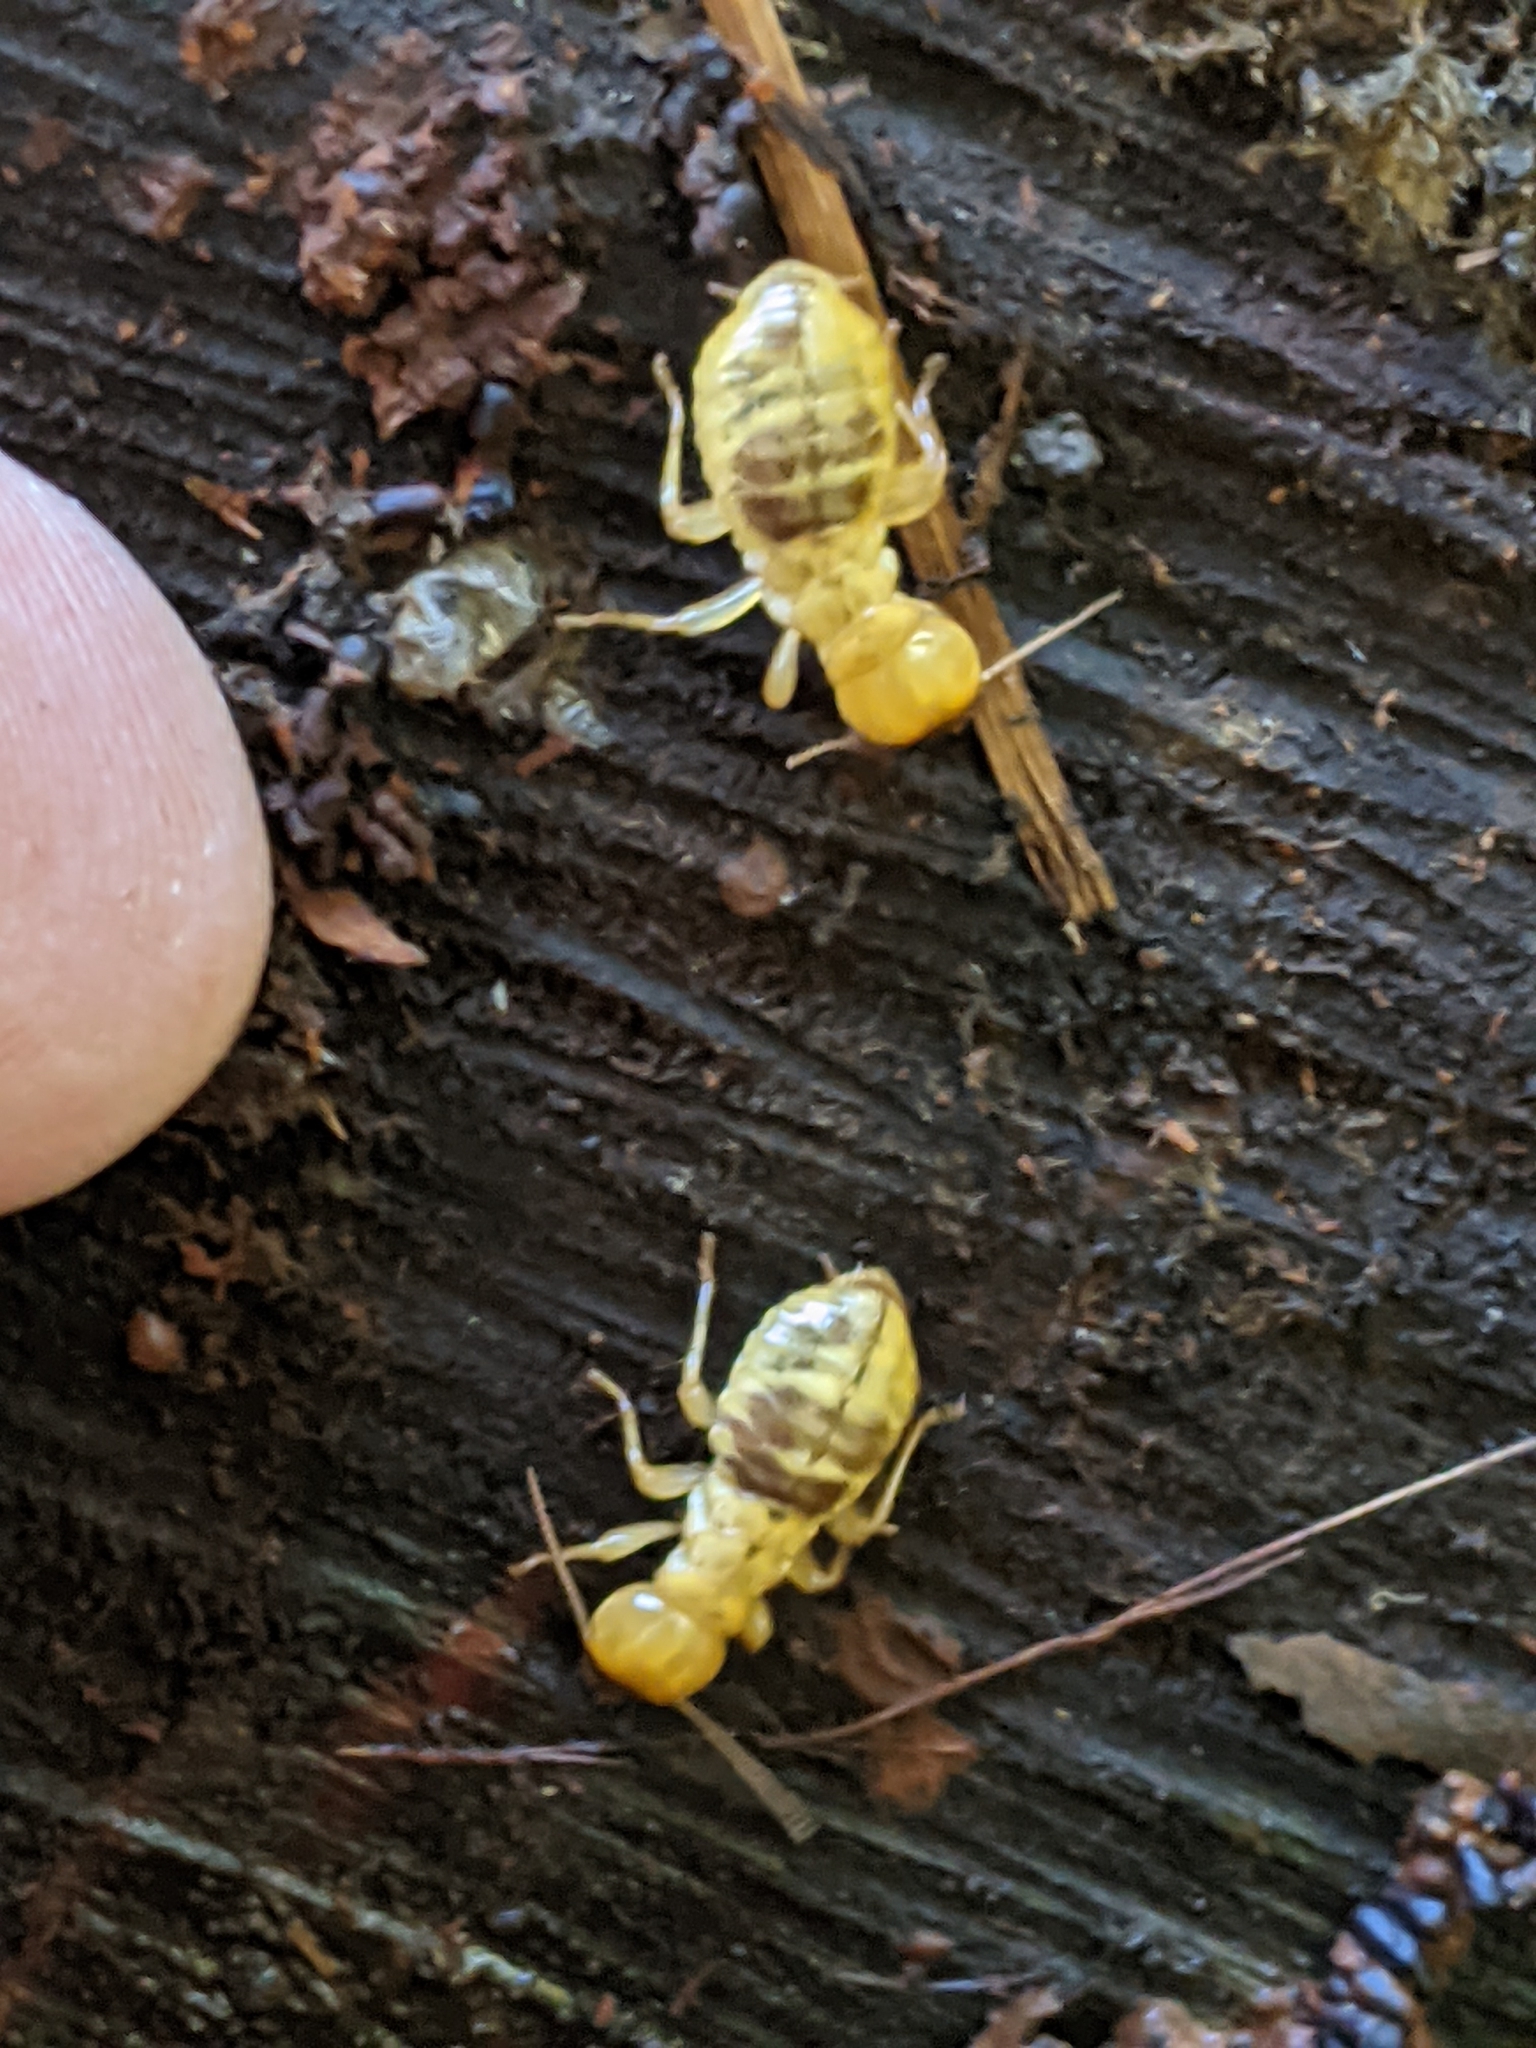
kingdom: Animalia
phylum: Arthropoda
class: Insecta
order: Blattodea
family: Archotermopsidae
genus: Zootermopsis
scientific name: Zootermopsis
